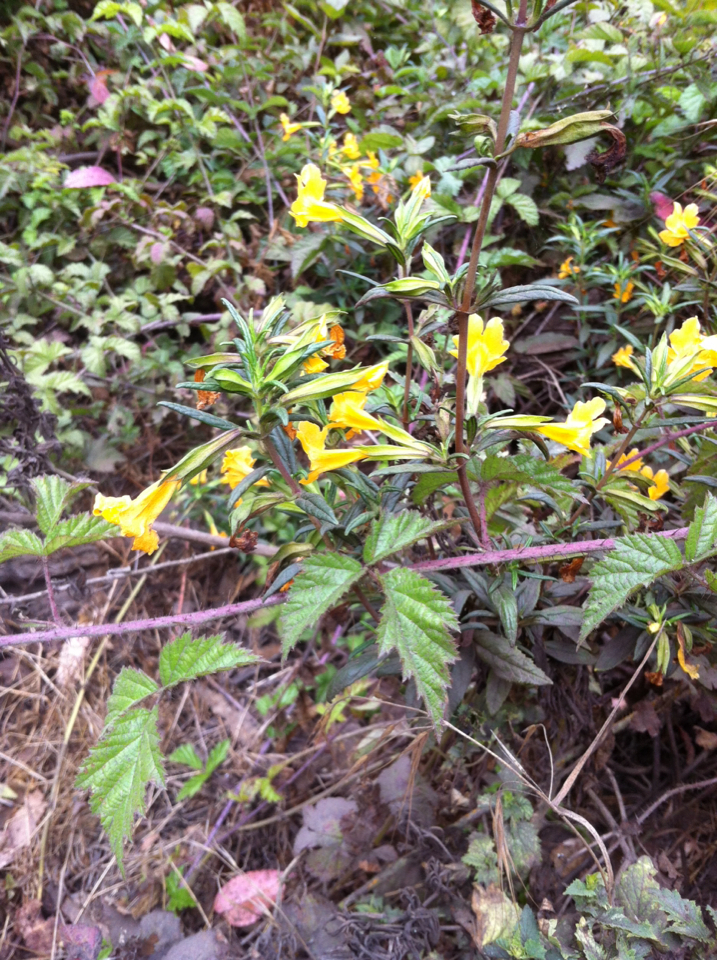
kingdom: Plantae
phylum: Tracheophyta
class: Magnoliopsida
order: Lamiales
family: Phrymaceae
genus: Diplacus
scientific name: Diplacus aurantiacus
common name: Bush monkey-flower
